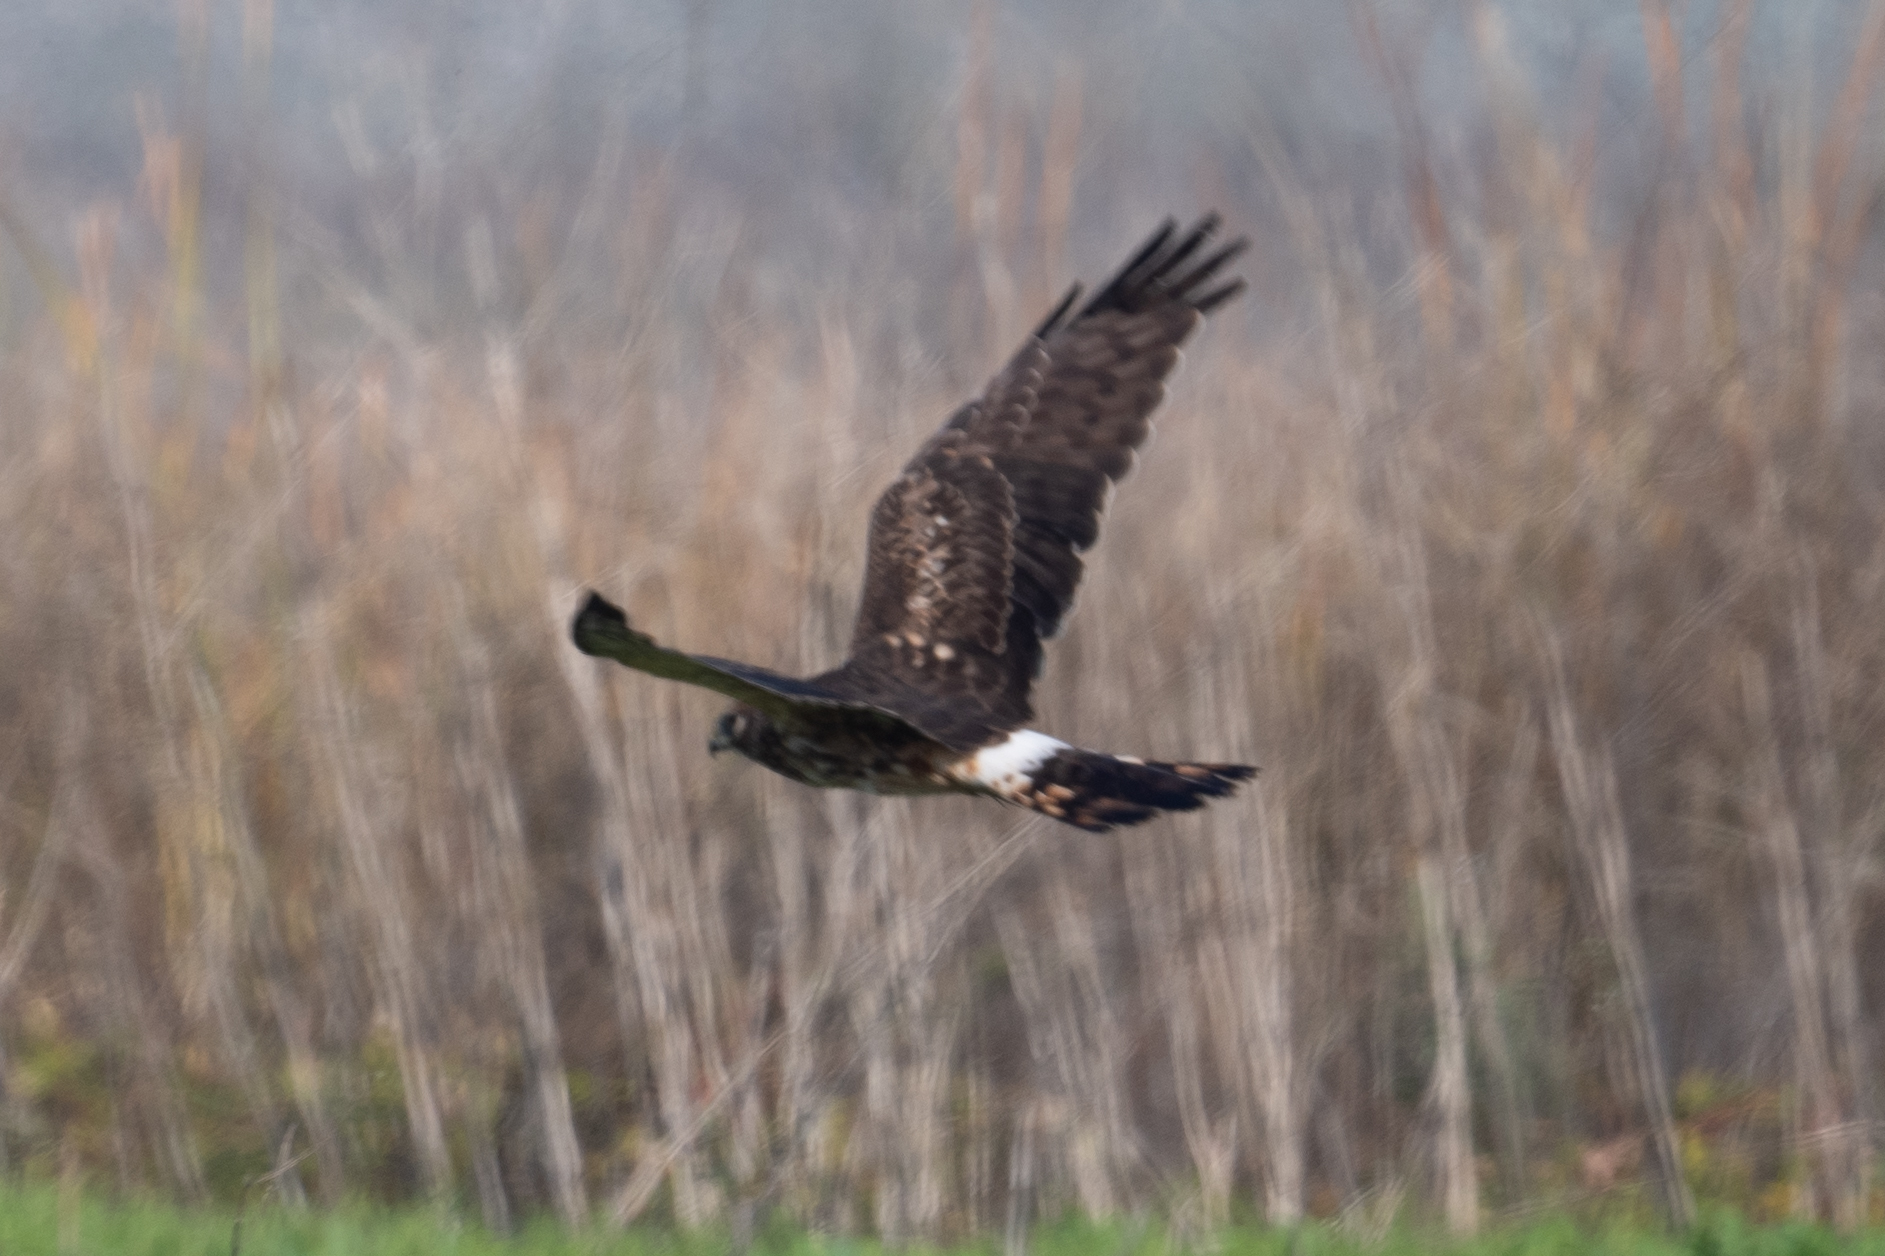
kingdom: Animalia
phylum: Chordata
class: Aves
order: Accipitriformes
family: Accipitridae
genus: Circus
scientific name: Circus cyaneus
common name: Hen harrier
